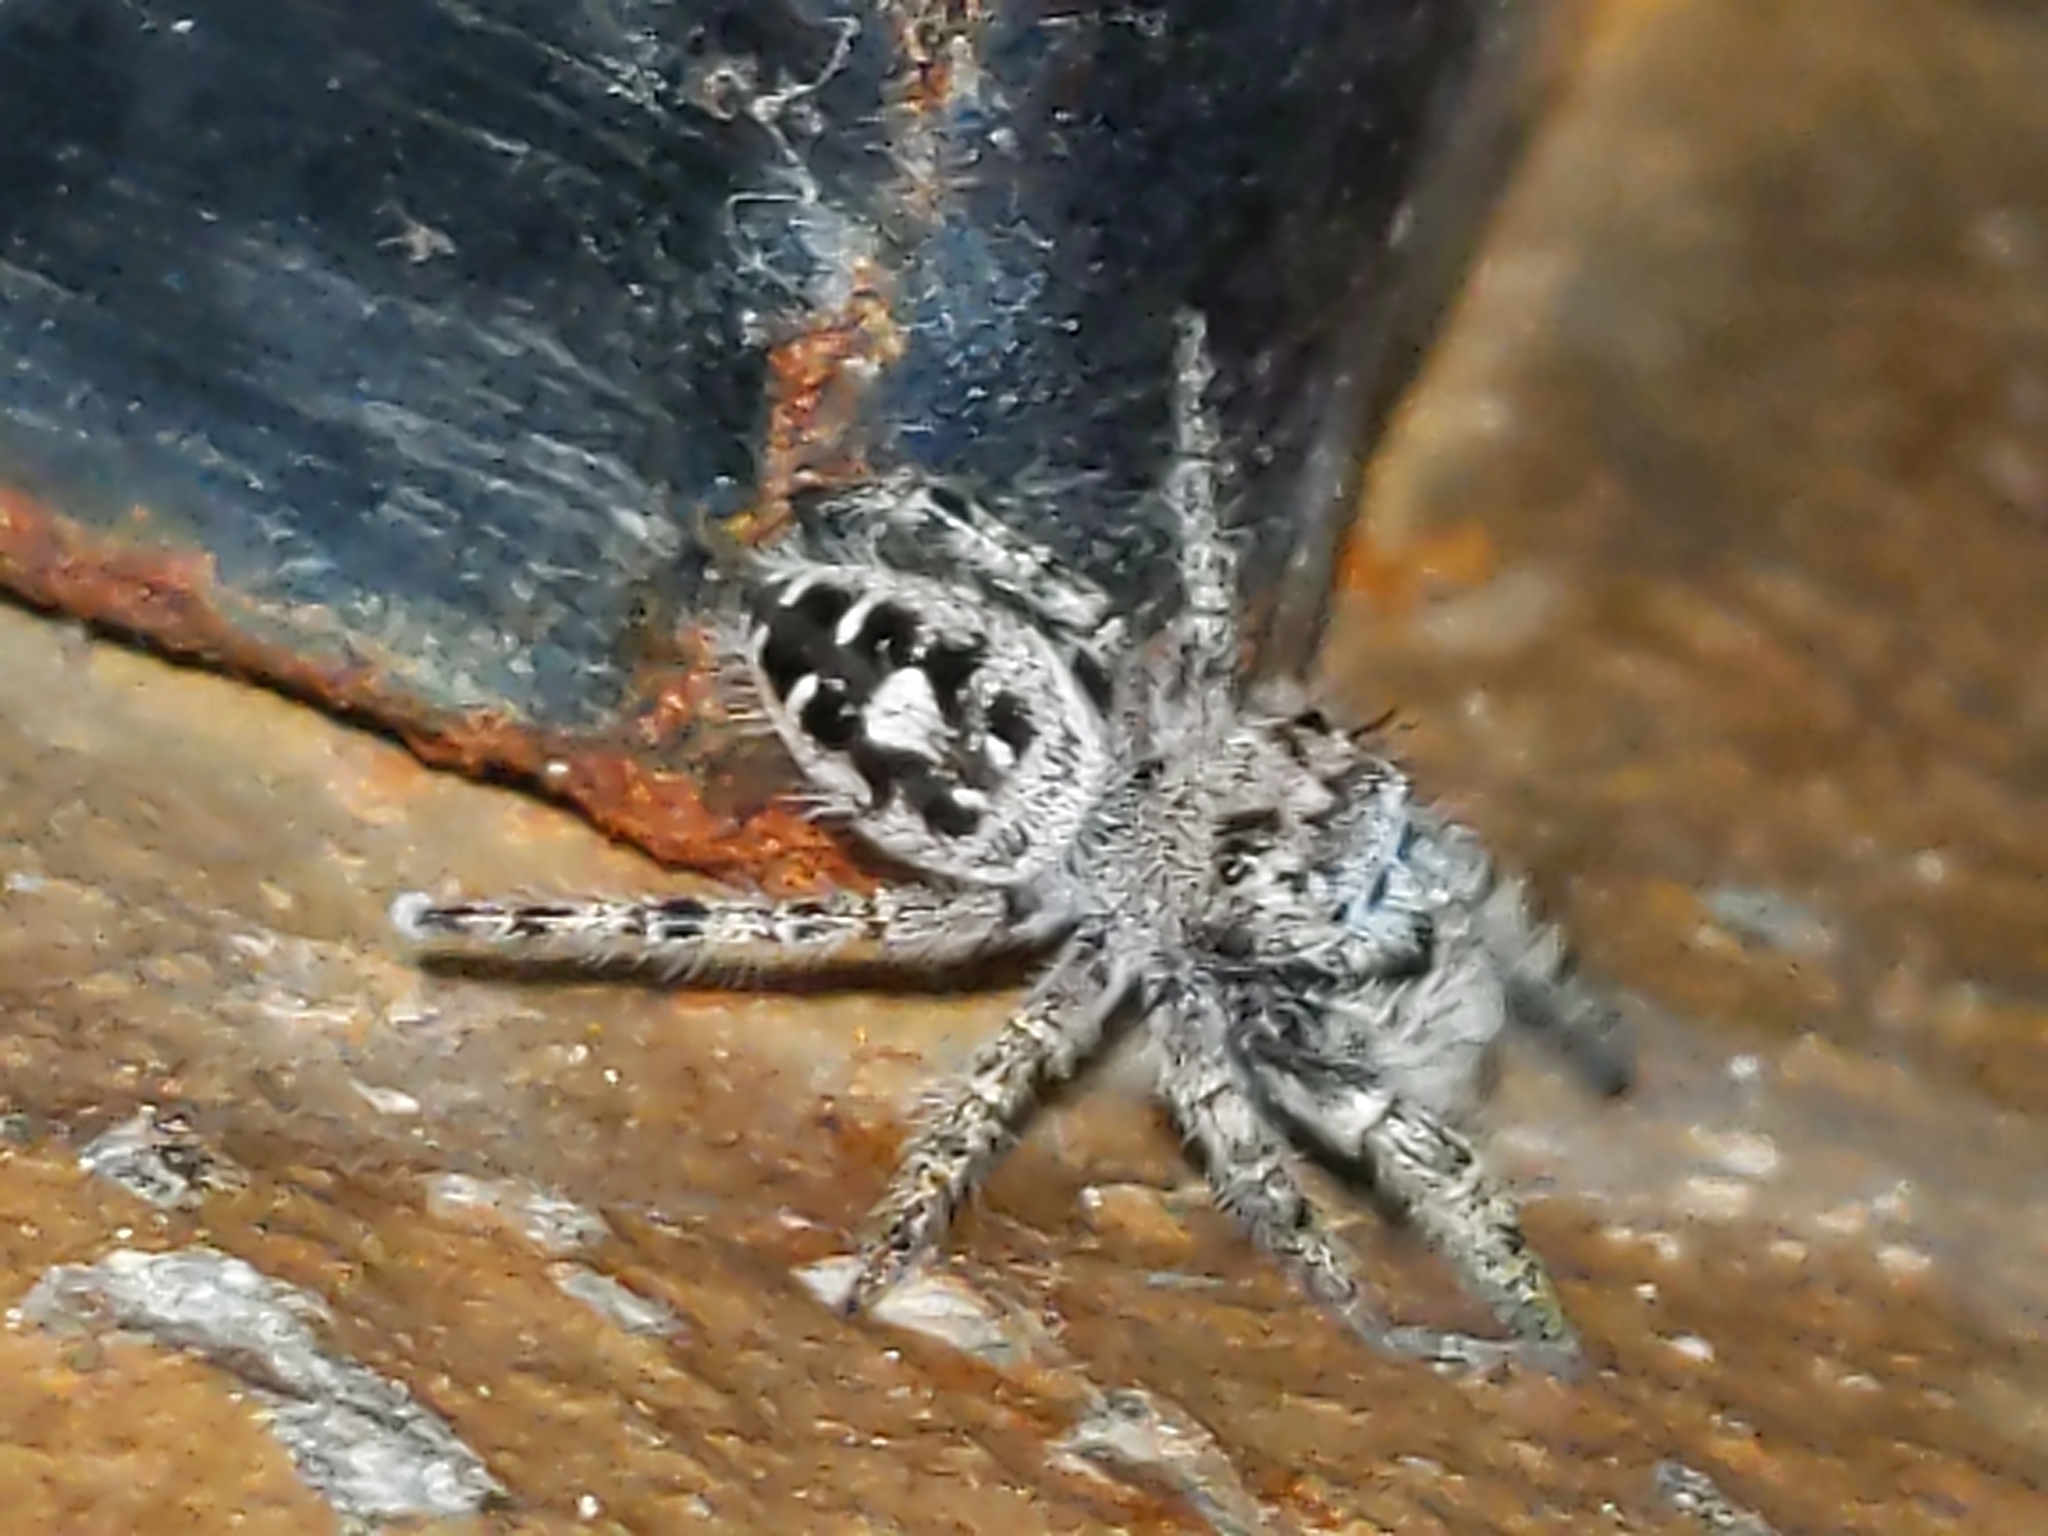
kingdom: Animalia
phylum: Arthropoda
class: Arachnida
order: Araneae
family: Salticidae
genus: Phidippus
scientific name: Phidippus putnami
